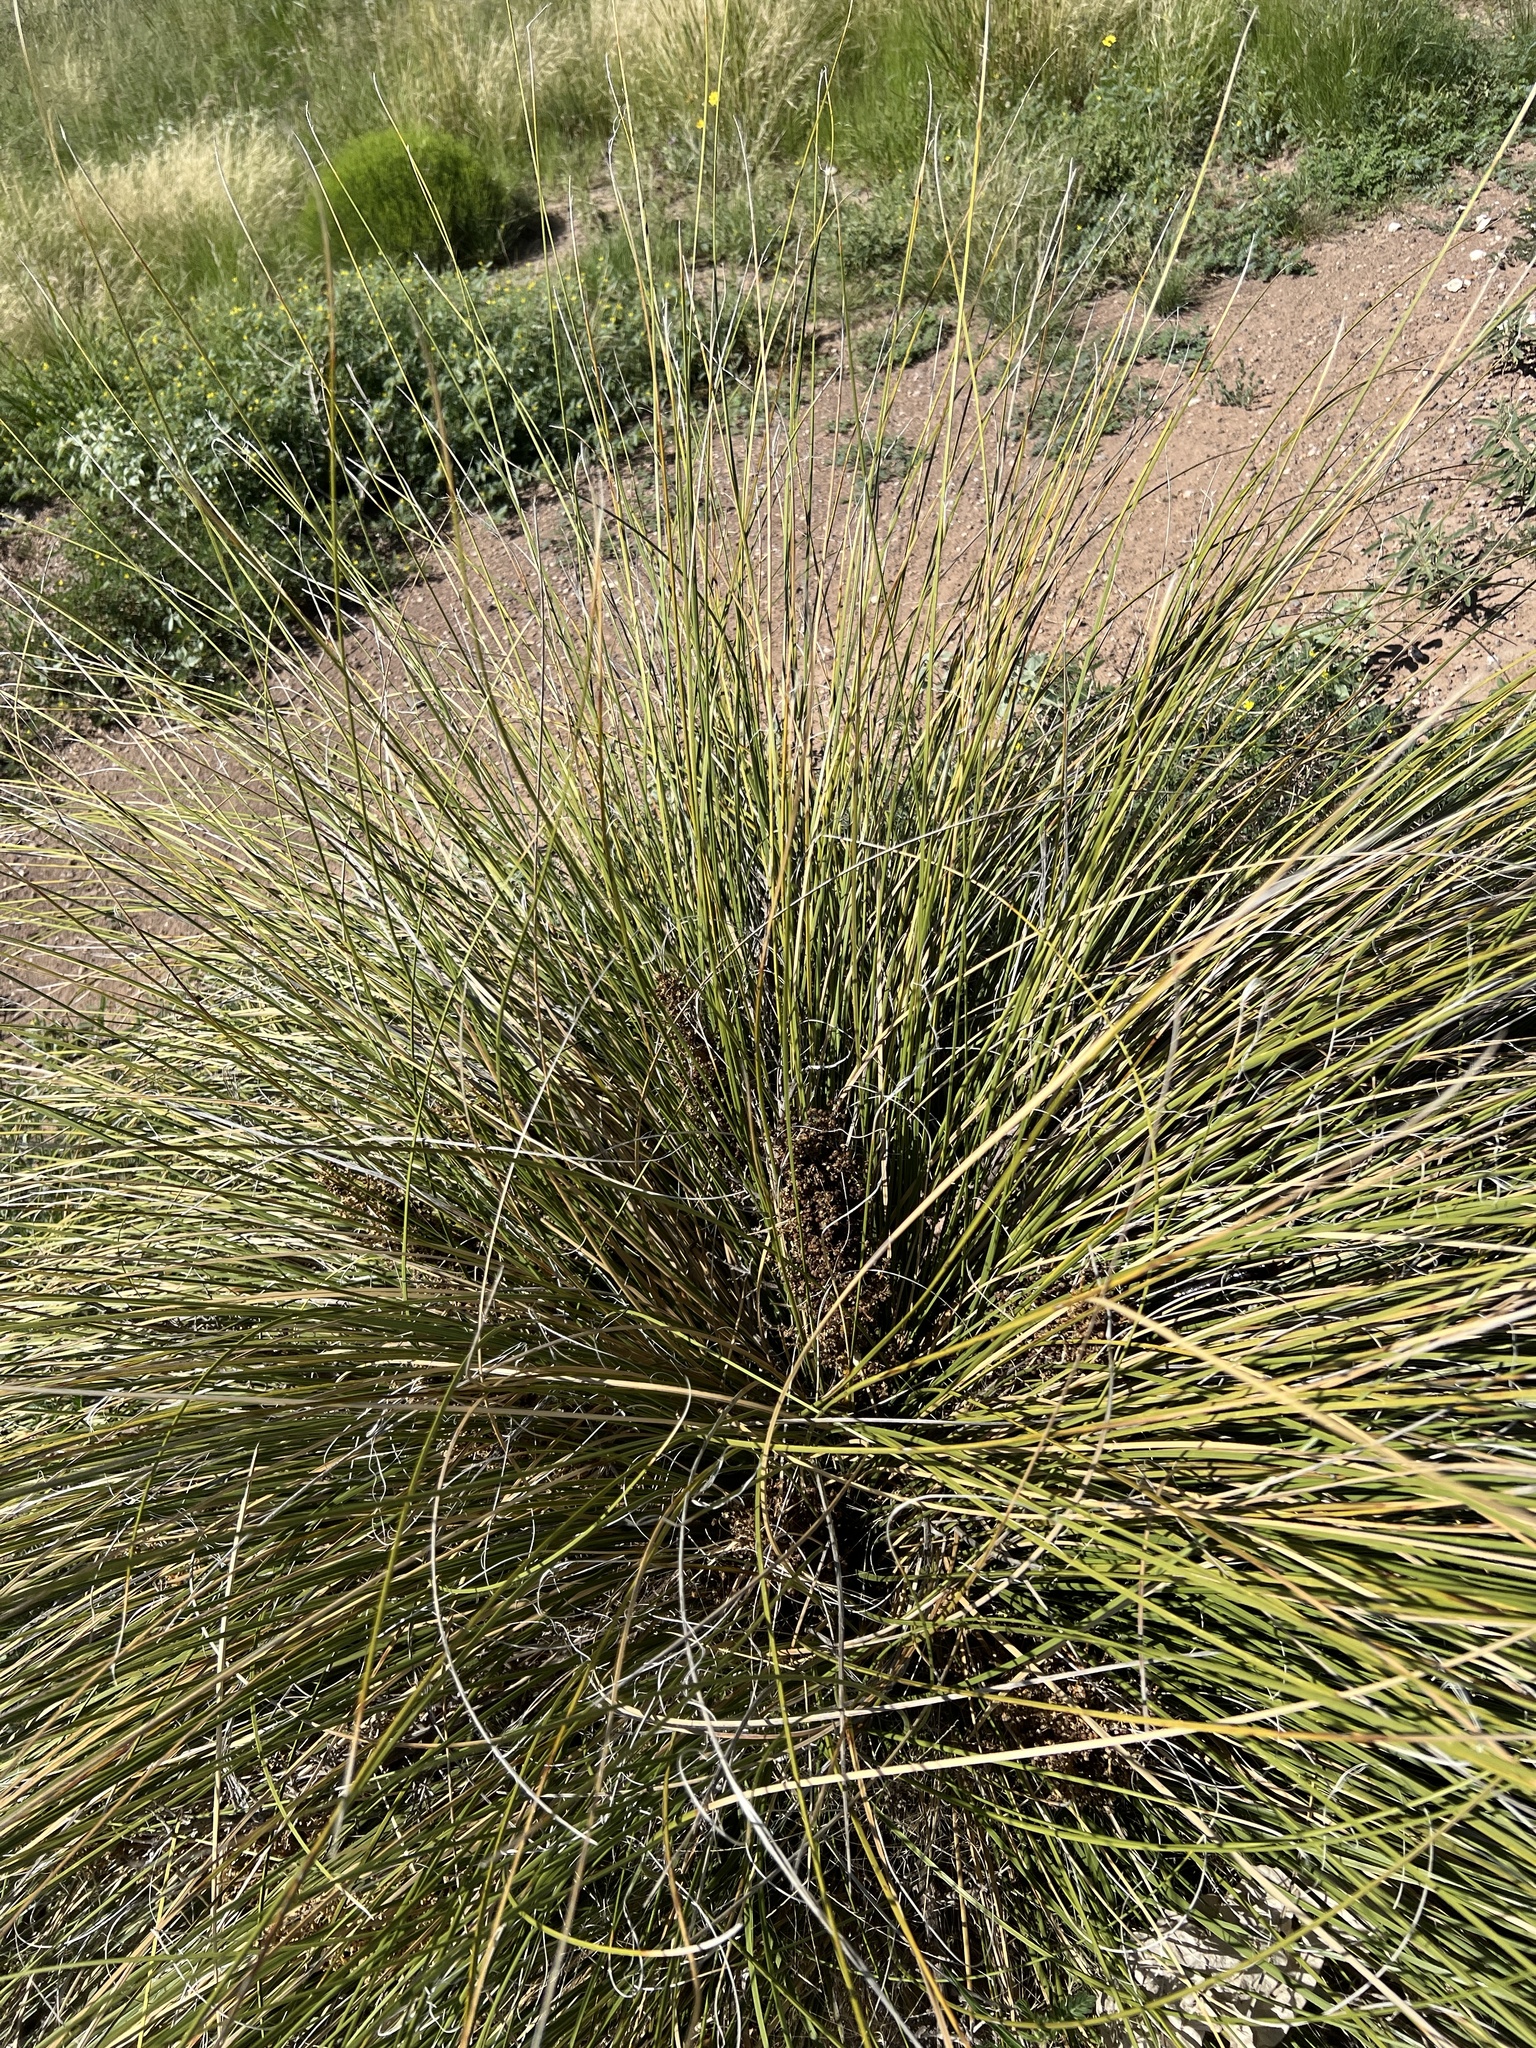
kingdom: Plantae
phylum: Tracheophyta
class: Liliopsida
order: Asparagales
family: Asparagaceae
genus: Nolina
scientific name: Nolina texana
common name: Texas sacahuiste
